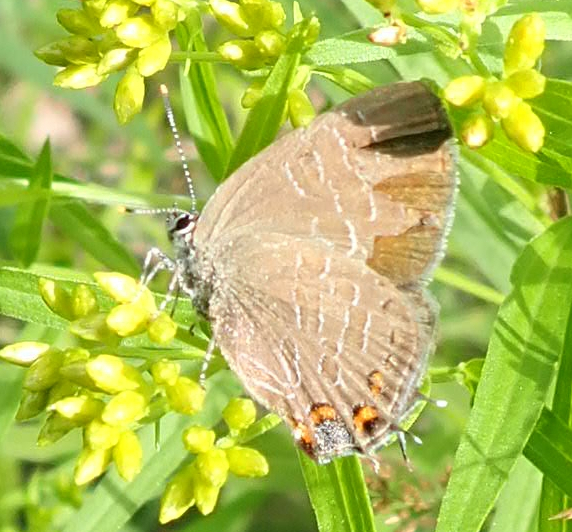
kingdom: Animalia
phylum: Arthropoda
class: Insecta
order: Lepidoptera
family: Lycaenidae
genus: Satyrium
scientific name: Satyrium liparops
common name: Striped hairstreak
